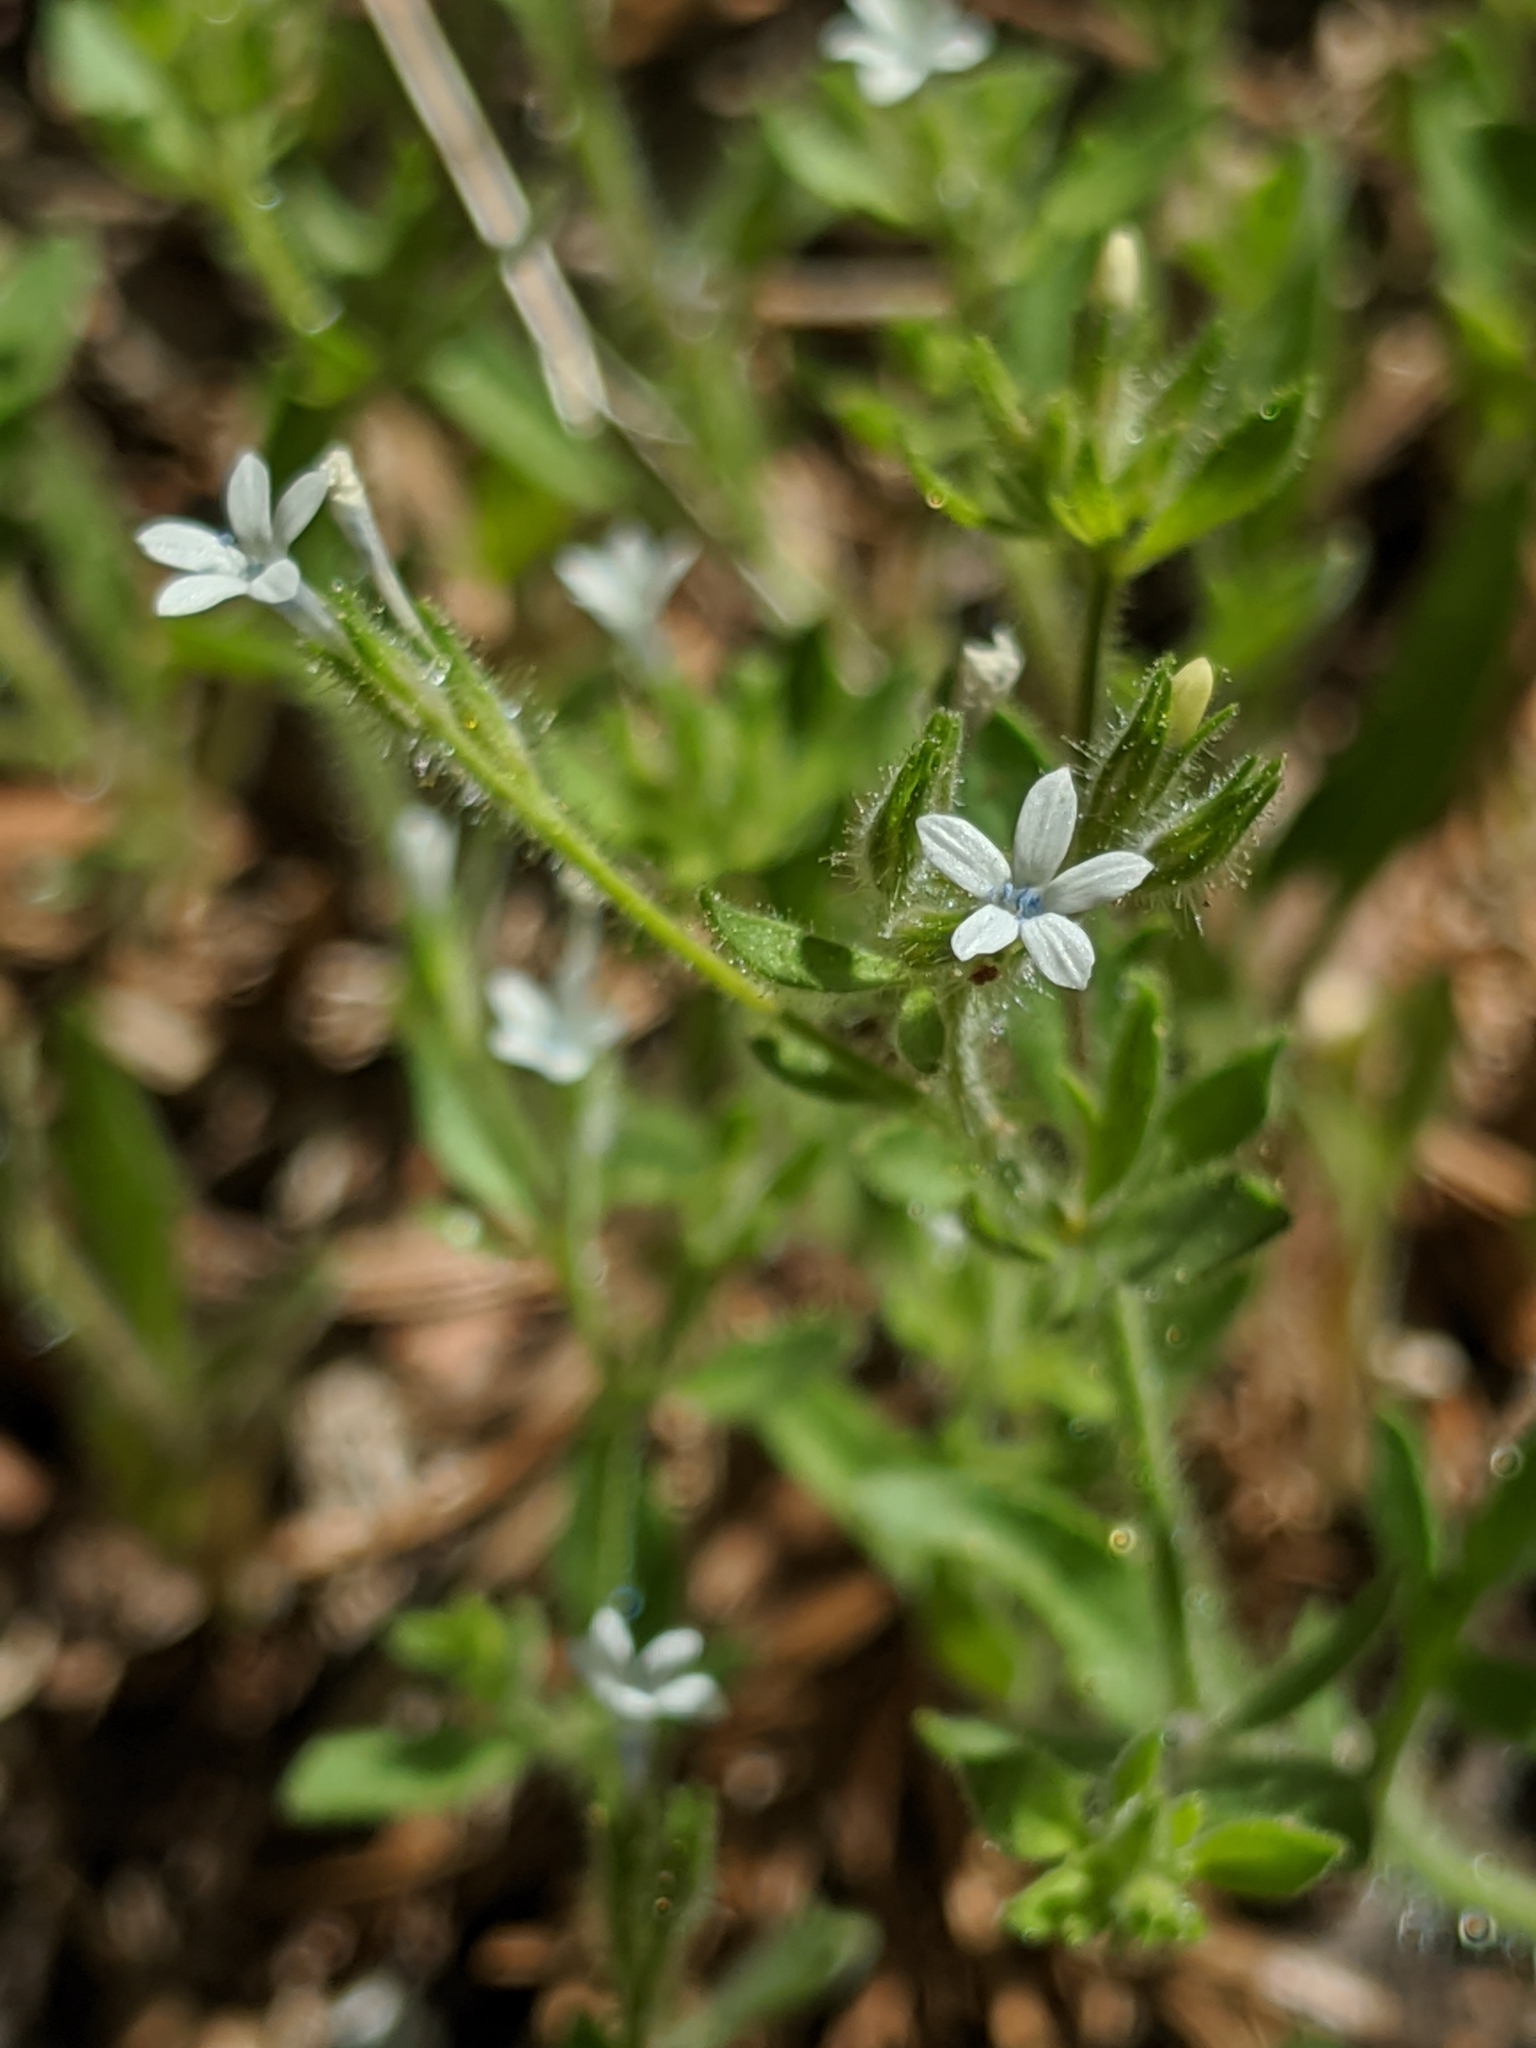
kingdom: Plantae
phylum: Tracheophyta
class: Magnoliopsida
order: Ericales
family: Polemoniaceae
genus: Allophyllum
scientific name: Allophyllum integrifolium
